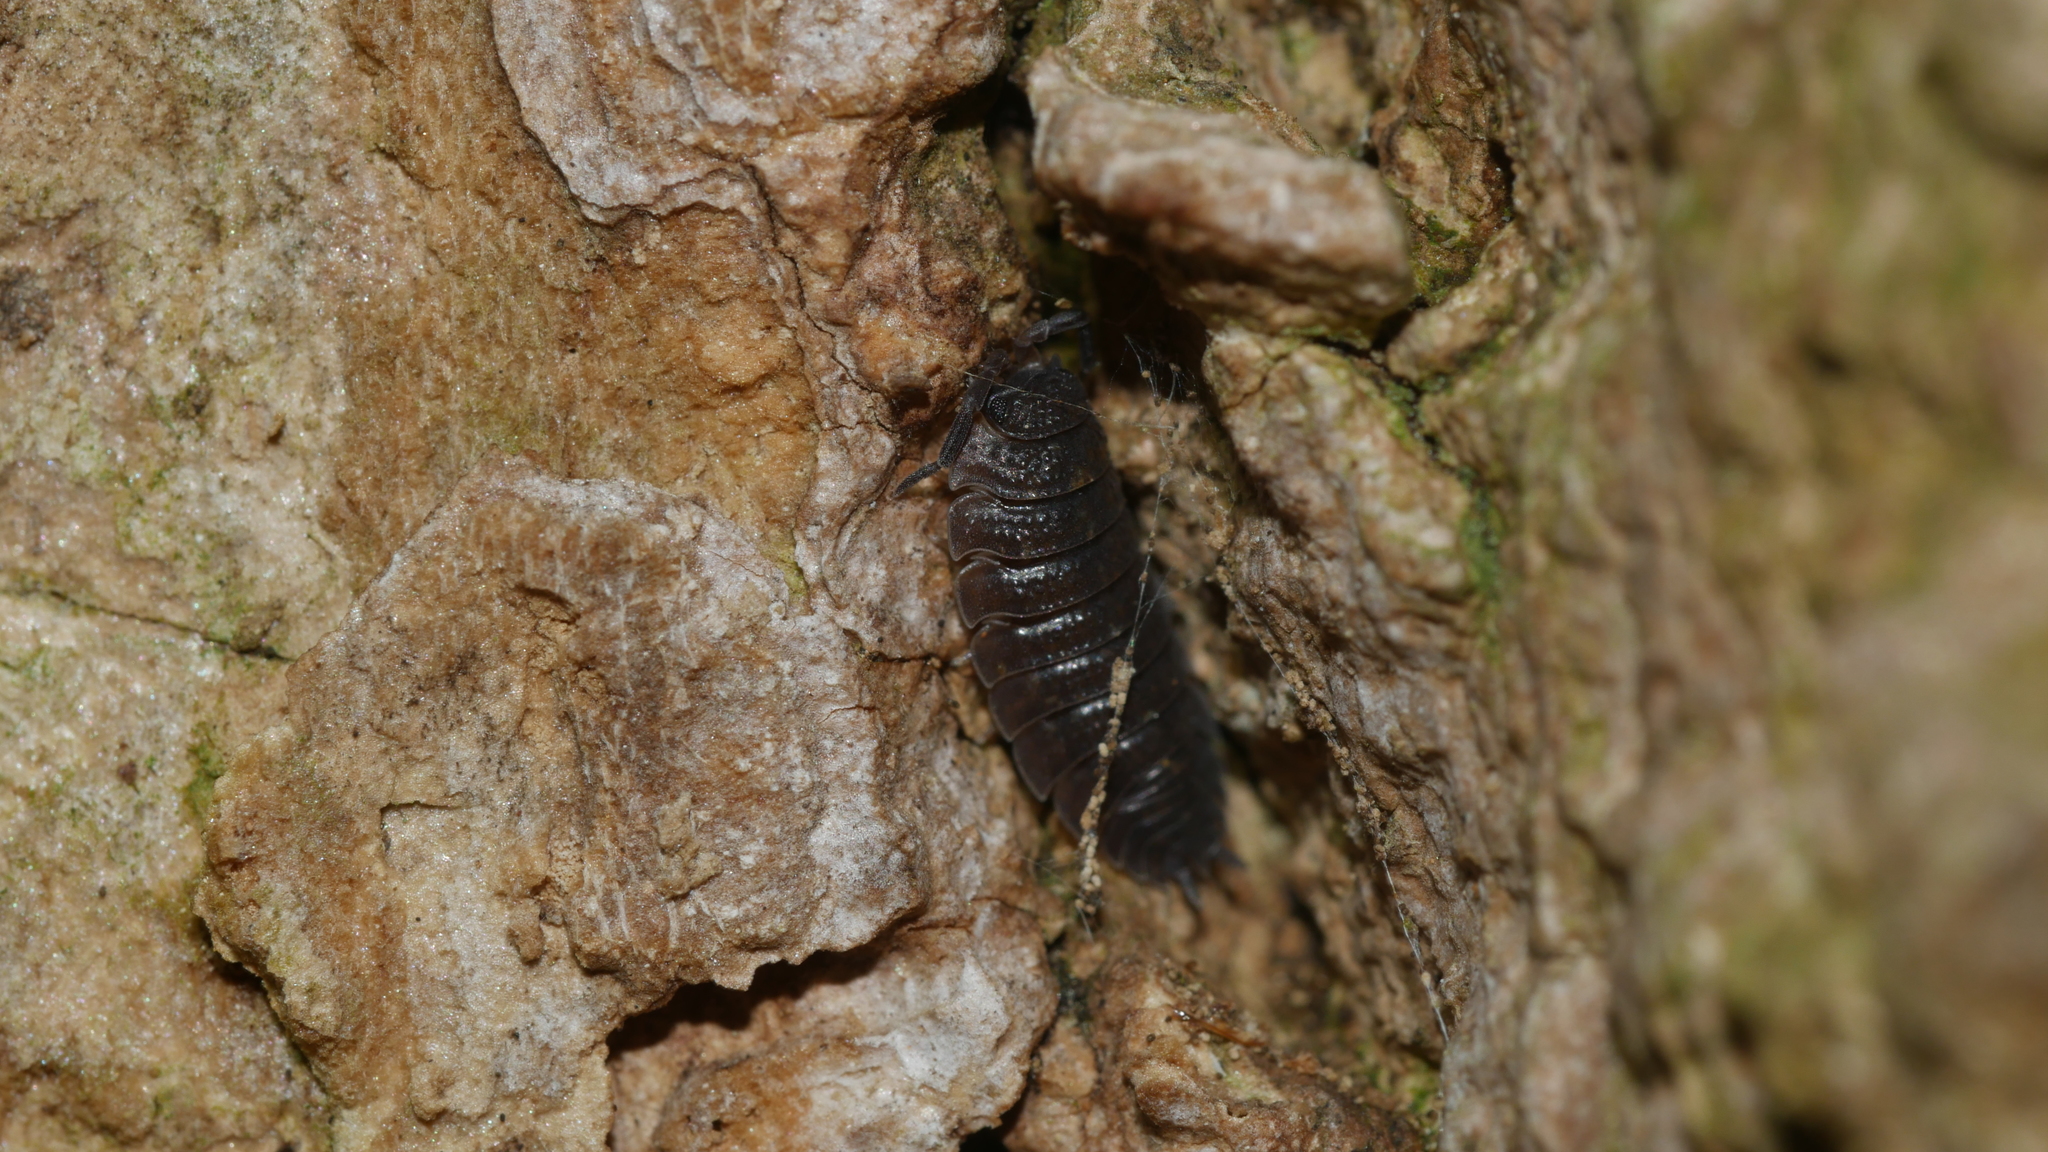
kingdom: Animalia
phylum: Arthropoda
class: Malacostraca
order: Isopoda
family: Porcellionidae
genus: Porcellio
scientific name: Porcellio scaber
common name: Common rough woodlouse
